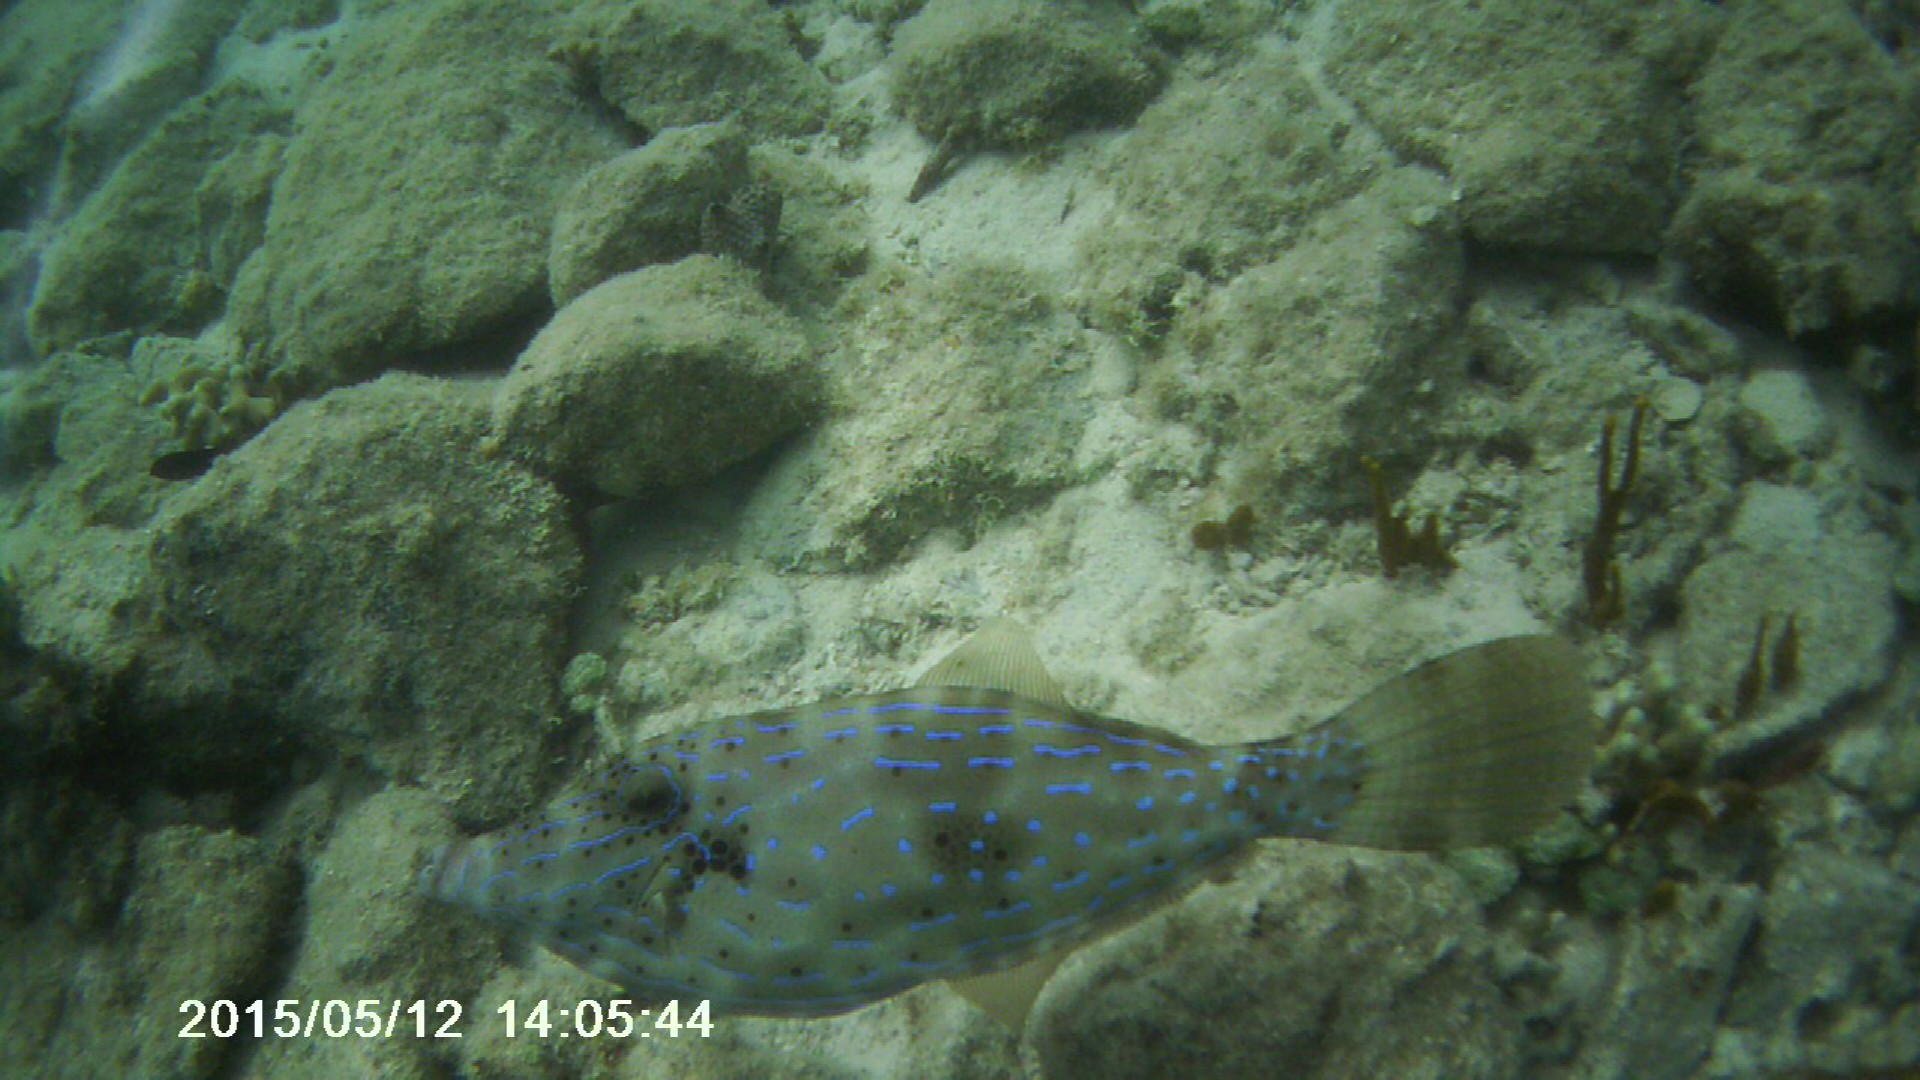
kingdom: Animalia
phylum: Chordata
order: Tetraodontiformes
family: Monacanthidae
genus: Aluterus
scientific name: Aluterus scriptus
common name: Scribbled leatherjacket filefish
